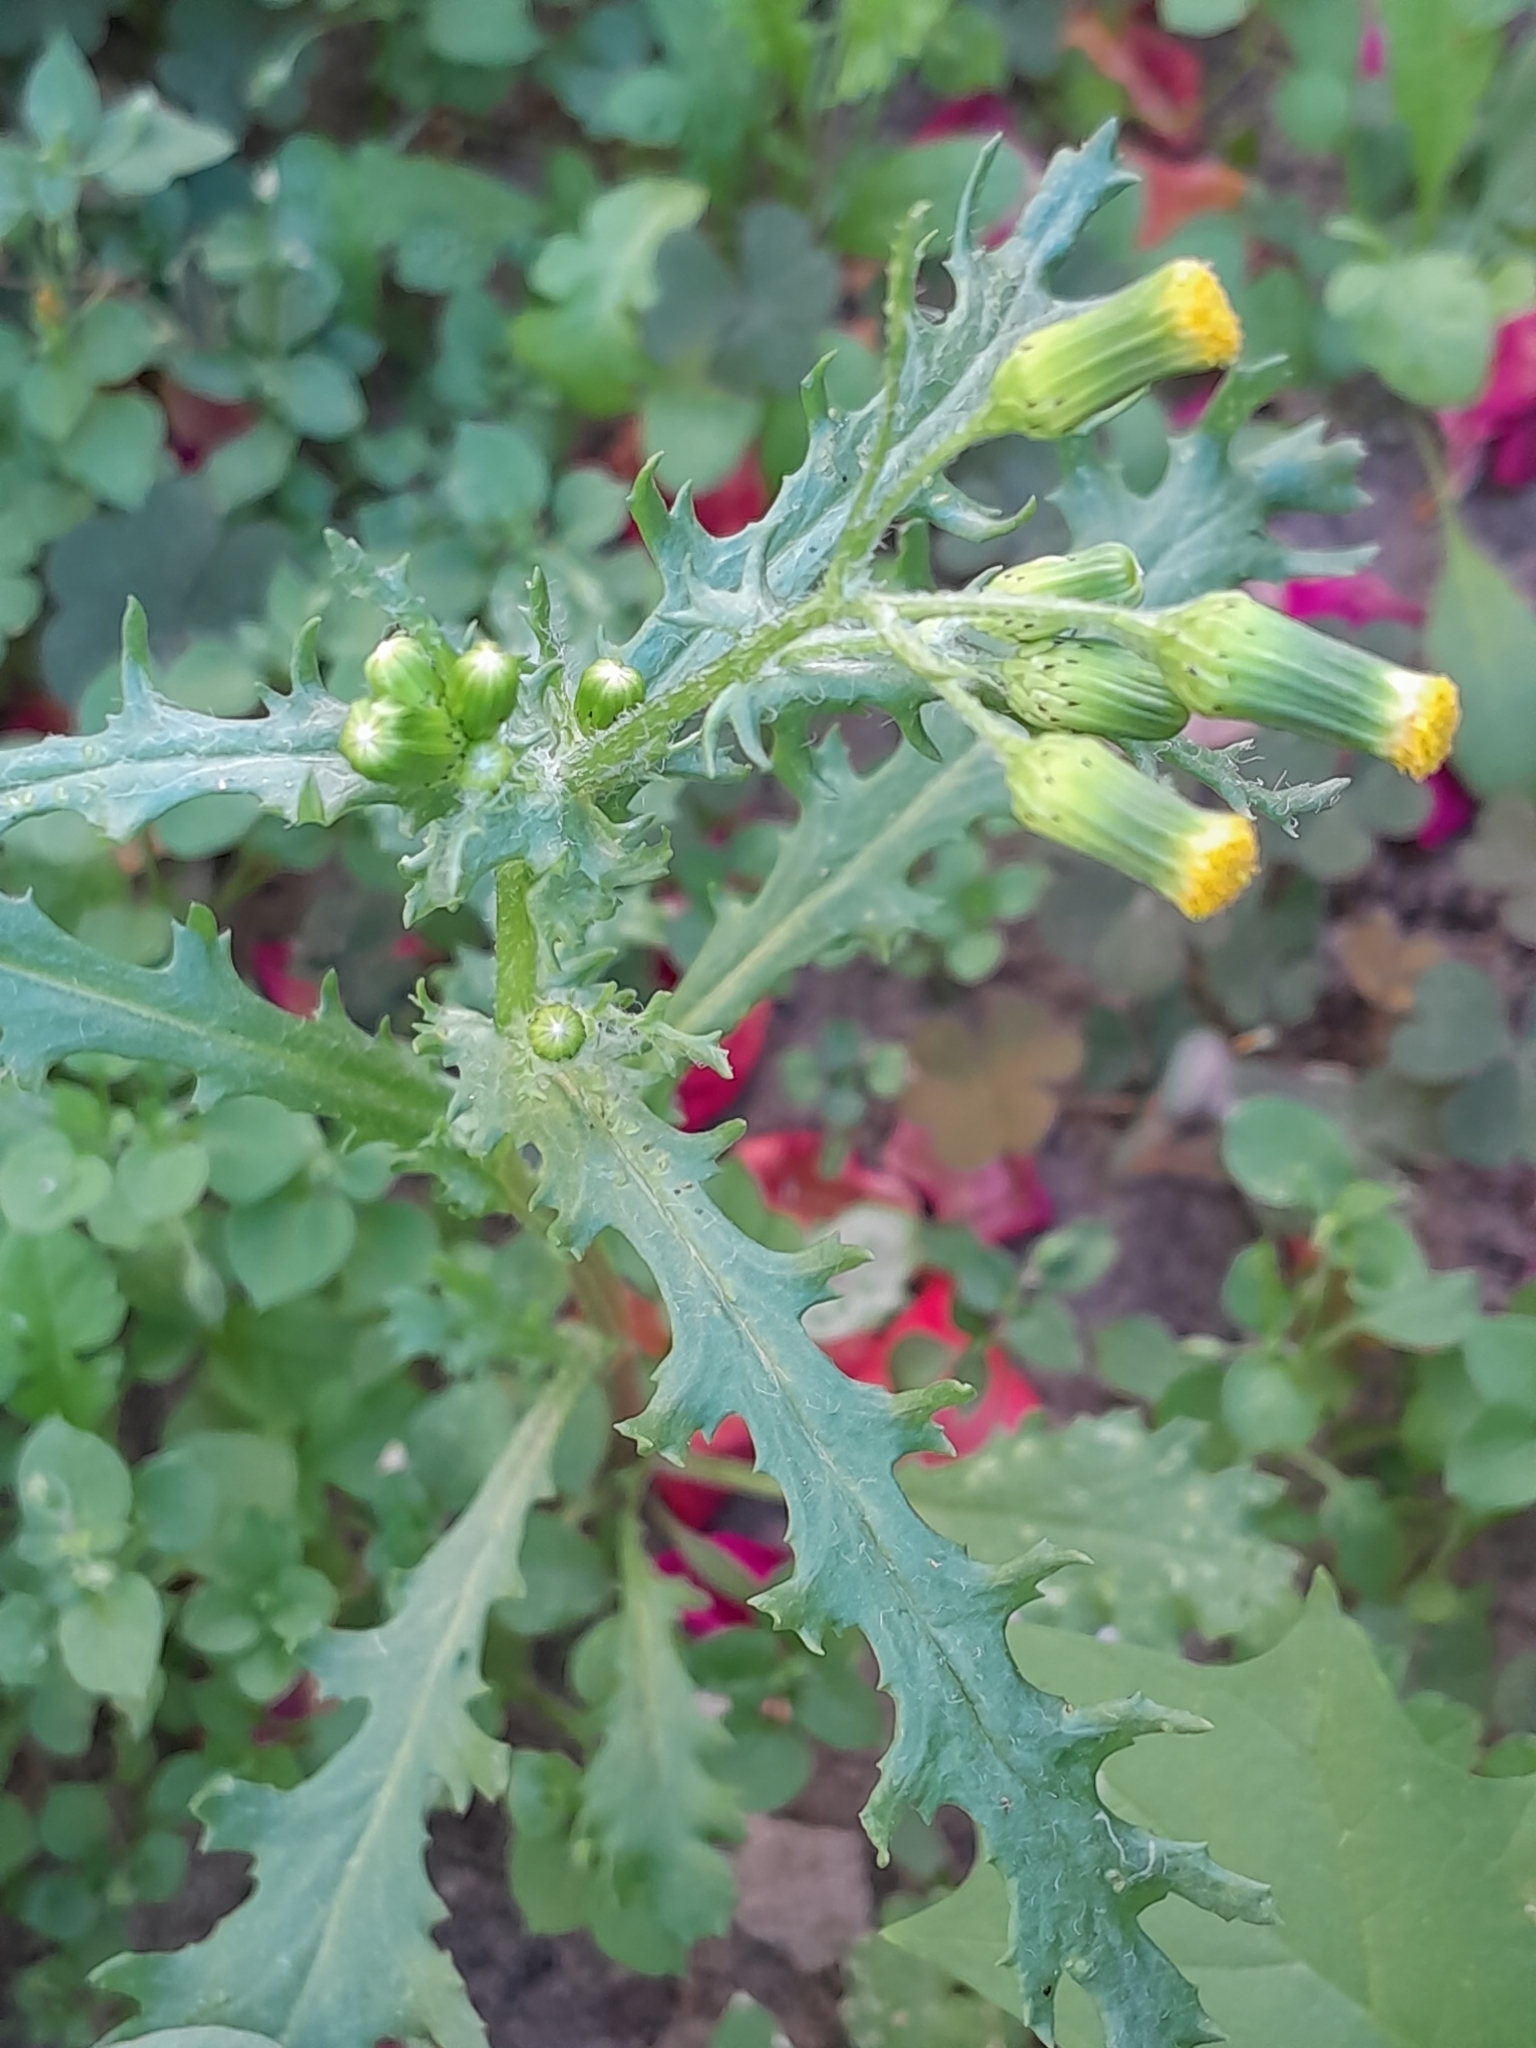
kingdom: Plantae
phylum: Tracheophyta
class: Magnoliopsida
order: Asterales
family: Asteraceae
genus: Senecio
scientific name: Senecio vulgaris
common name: Old-man-in-the-spring
